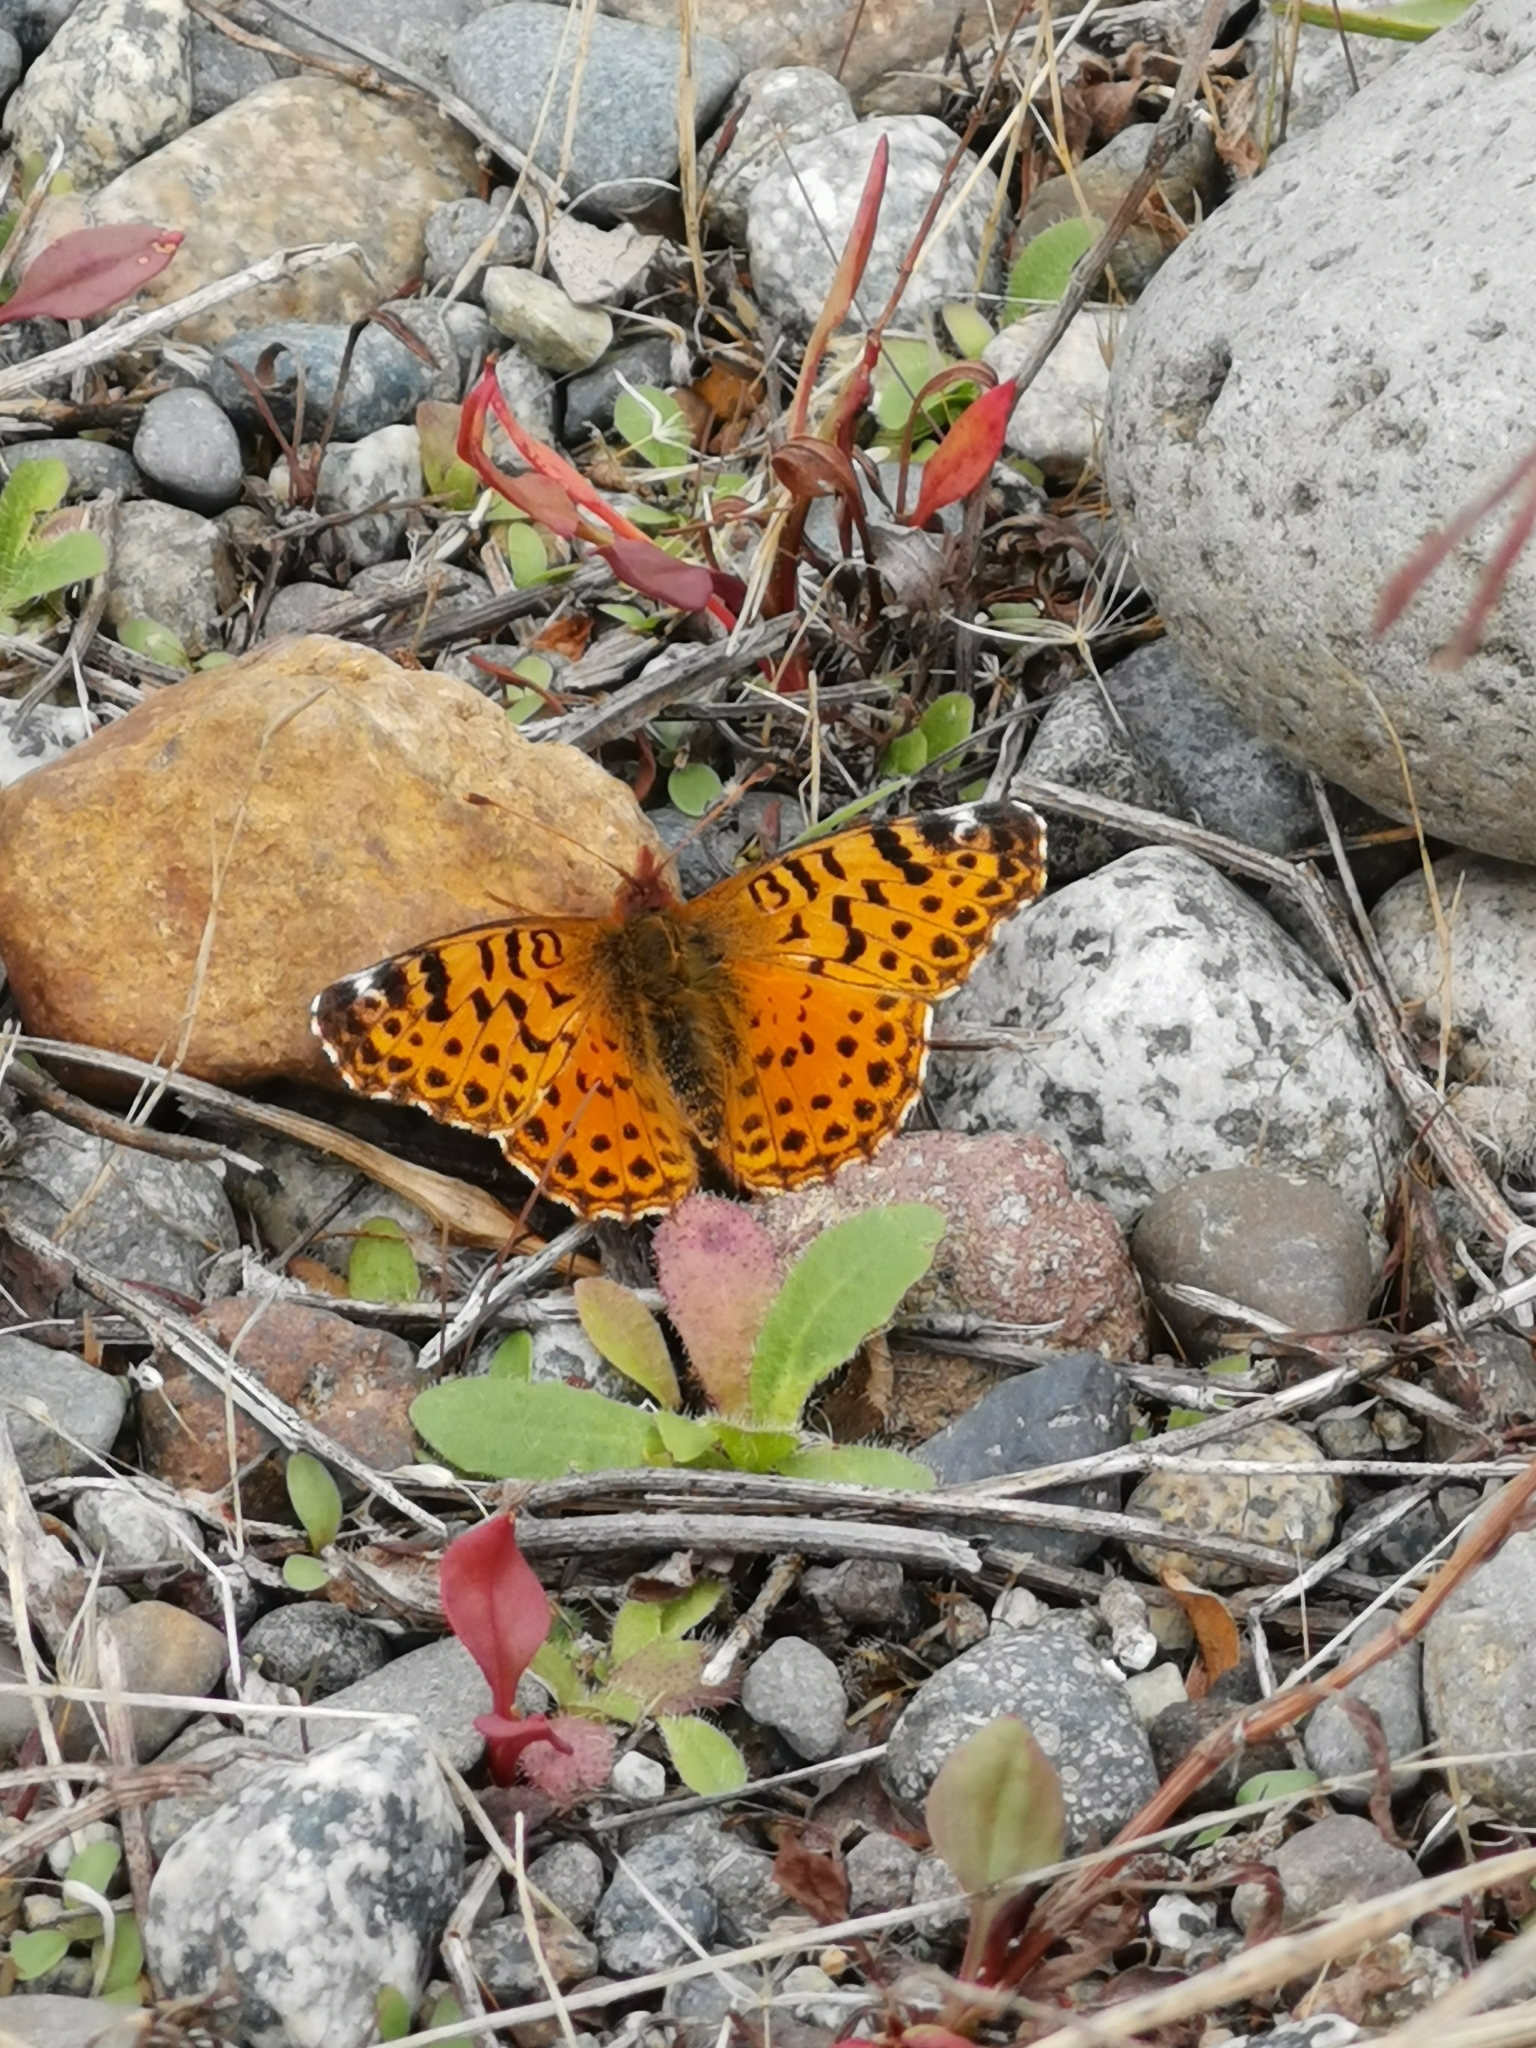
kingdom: Animalia
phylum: Arthropoda
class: Insecta
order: Lepidoptera
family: Nymphalidae
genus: Issoria
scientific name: Issoria Yramea cytheris
